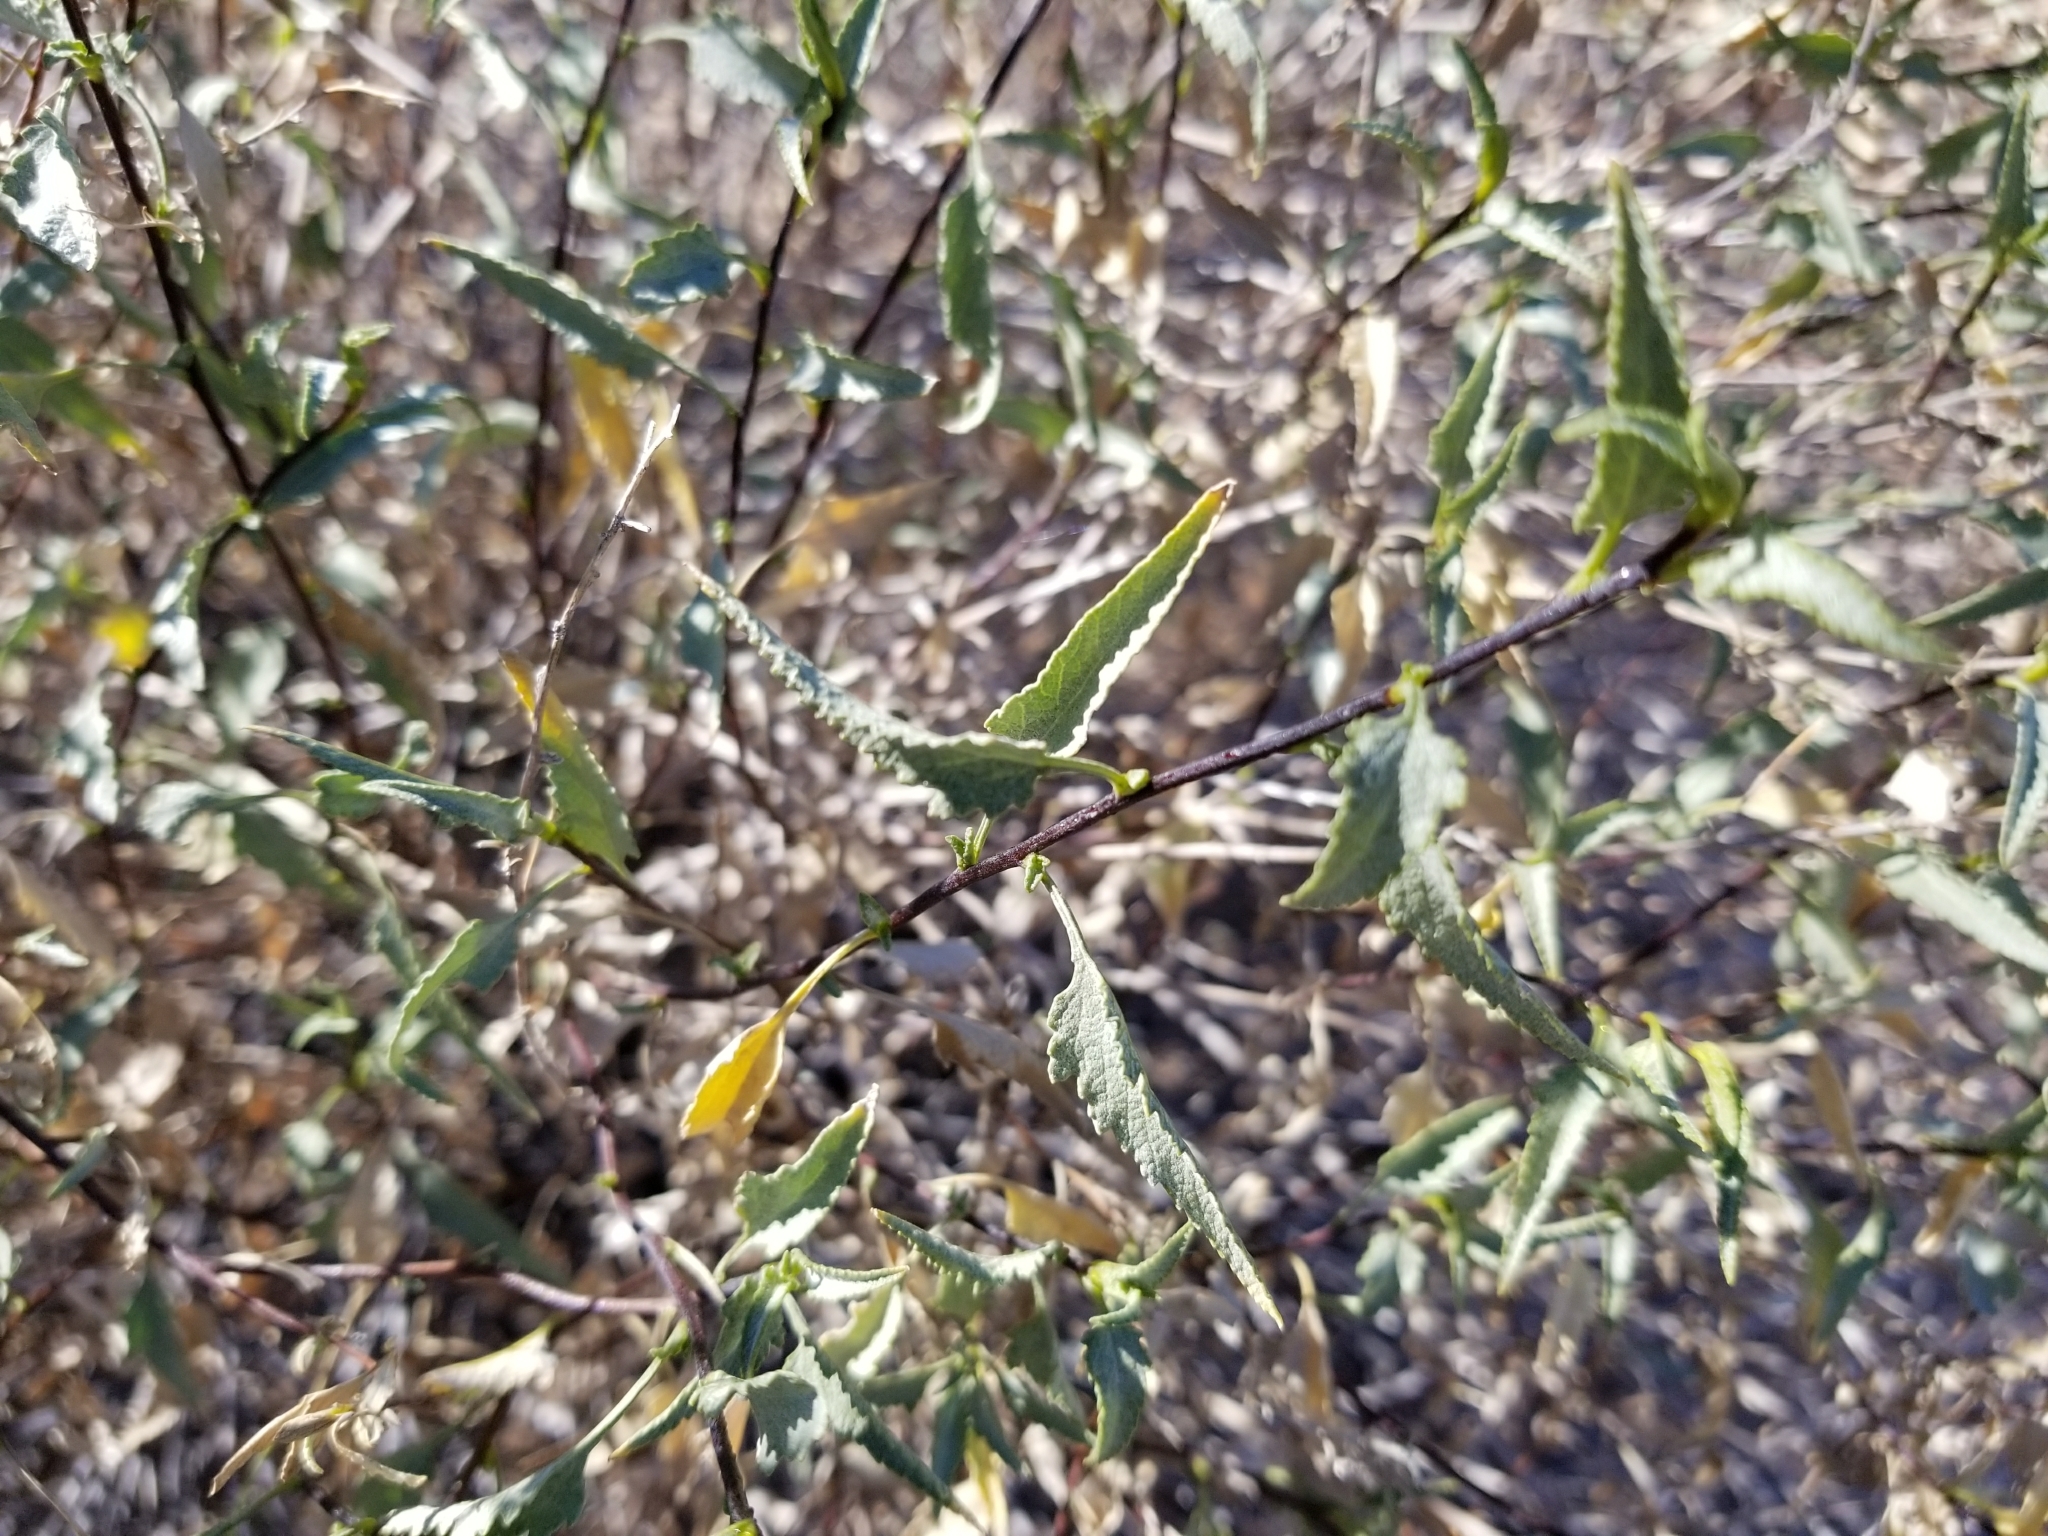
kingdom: Plantae
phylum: Tracheophyta
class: Magnoliopsida
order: Asterales
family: Asteraceae
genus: Ambrosia
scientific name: Ambrosia deltoidea
